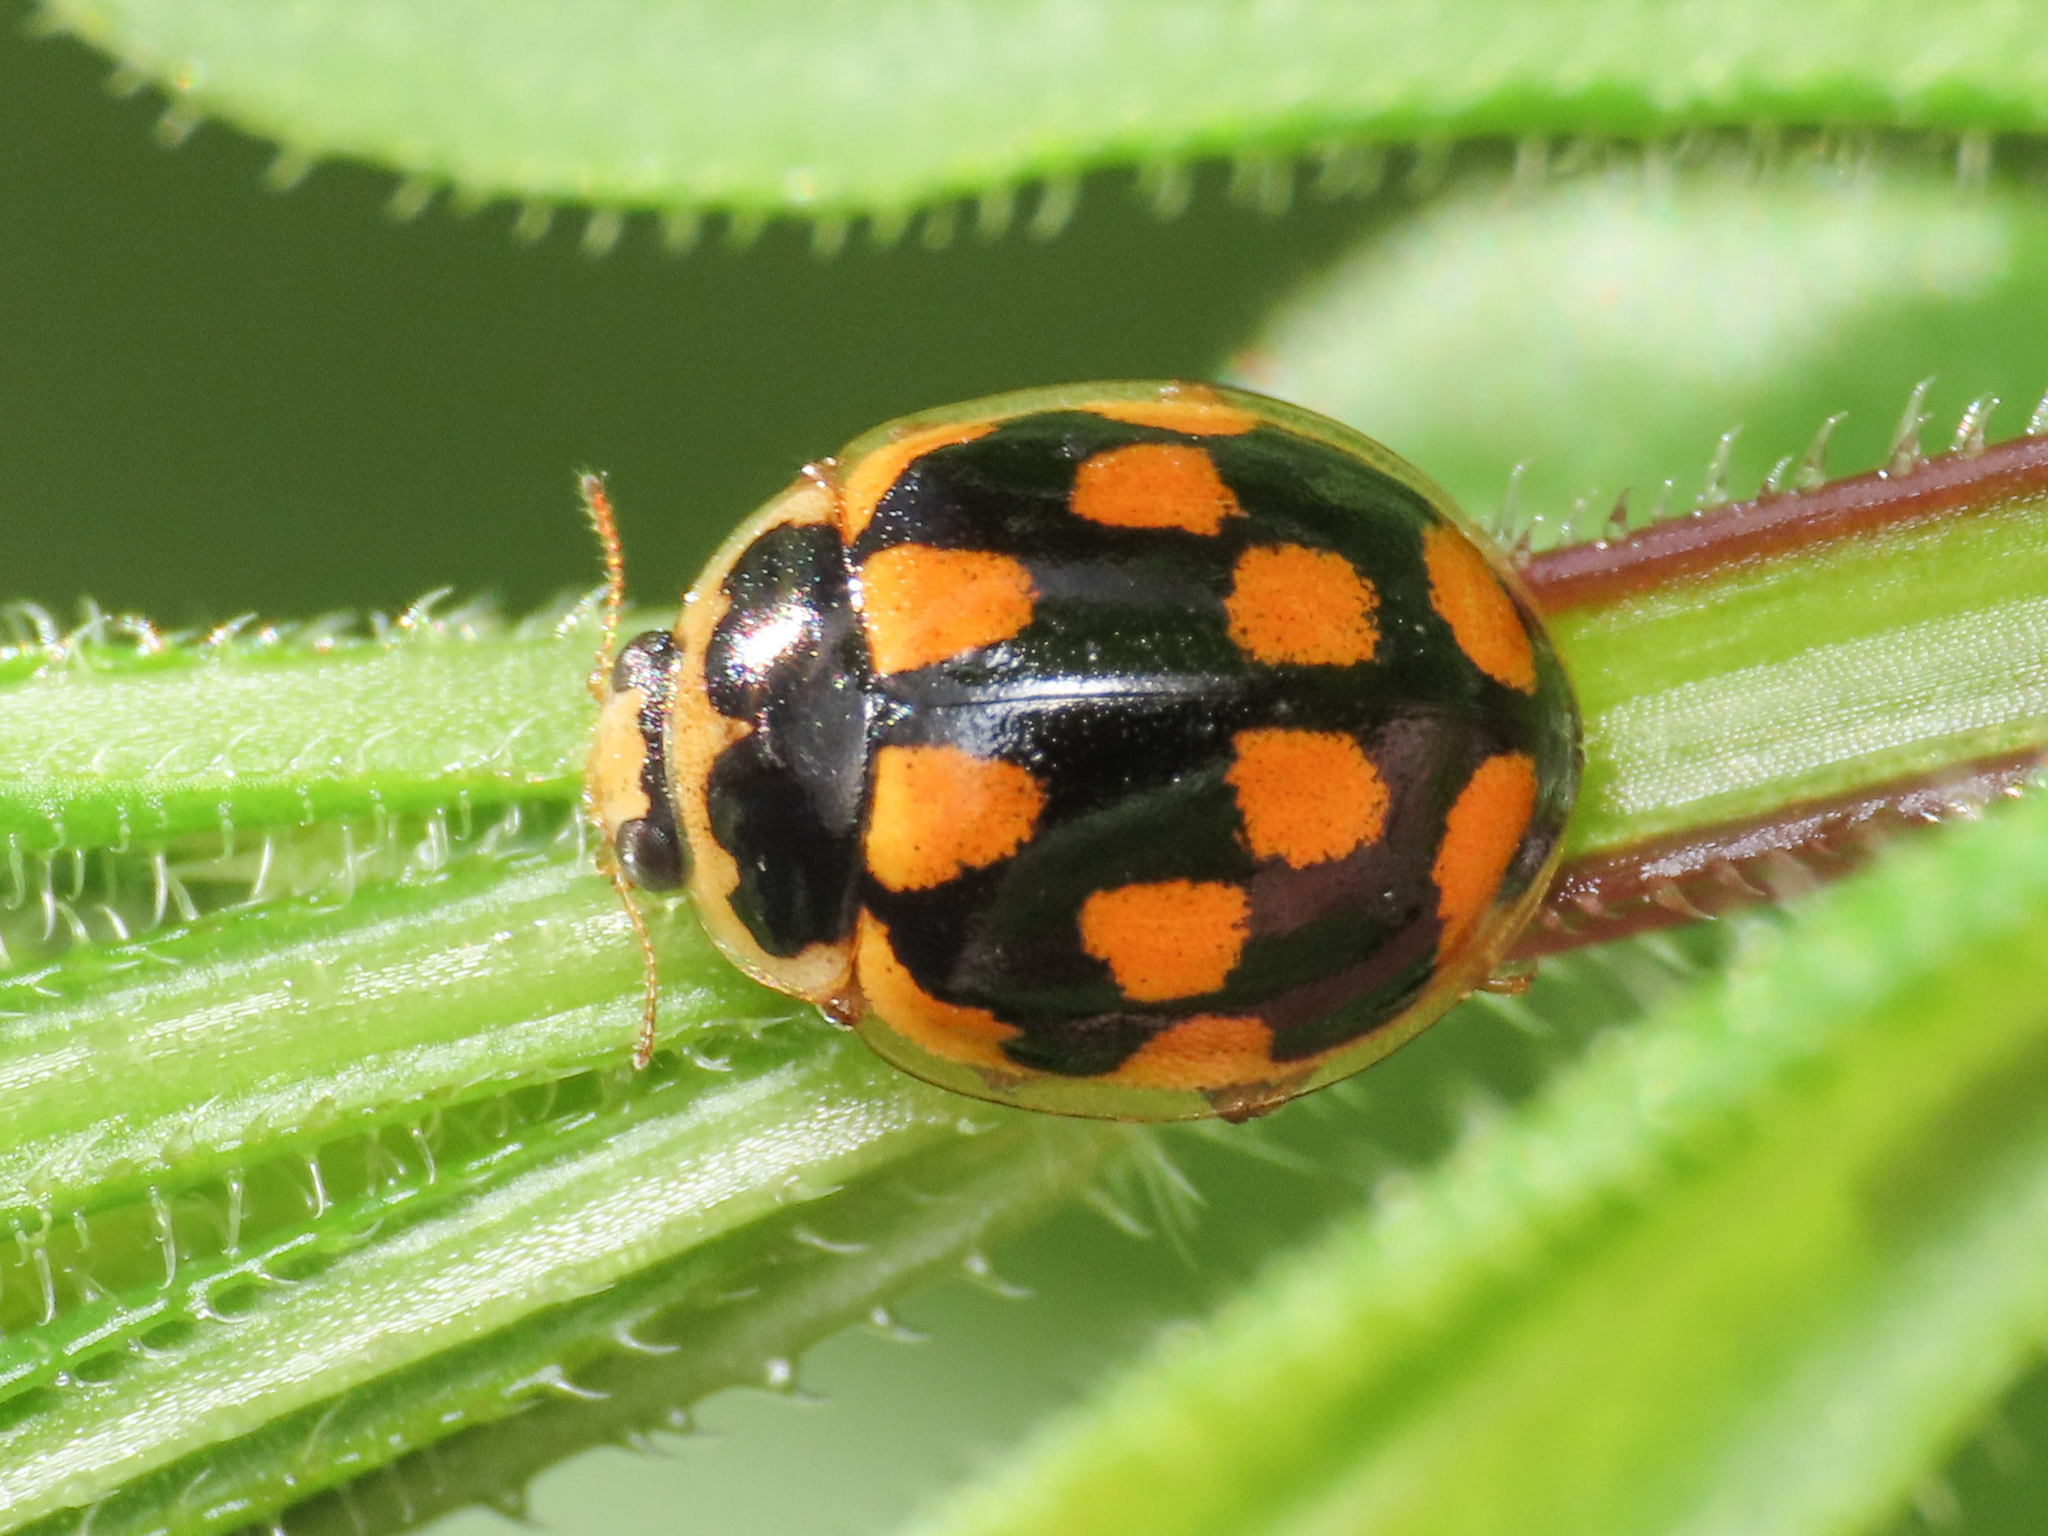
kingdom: Animalia
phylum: Arthropoda
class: Insecta
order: Coleoptera
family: Coccinellidae
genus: Propylaea
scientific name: Propylaea quatuordecimpunctata
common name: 14-spotted ladybird beetle
